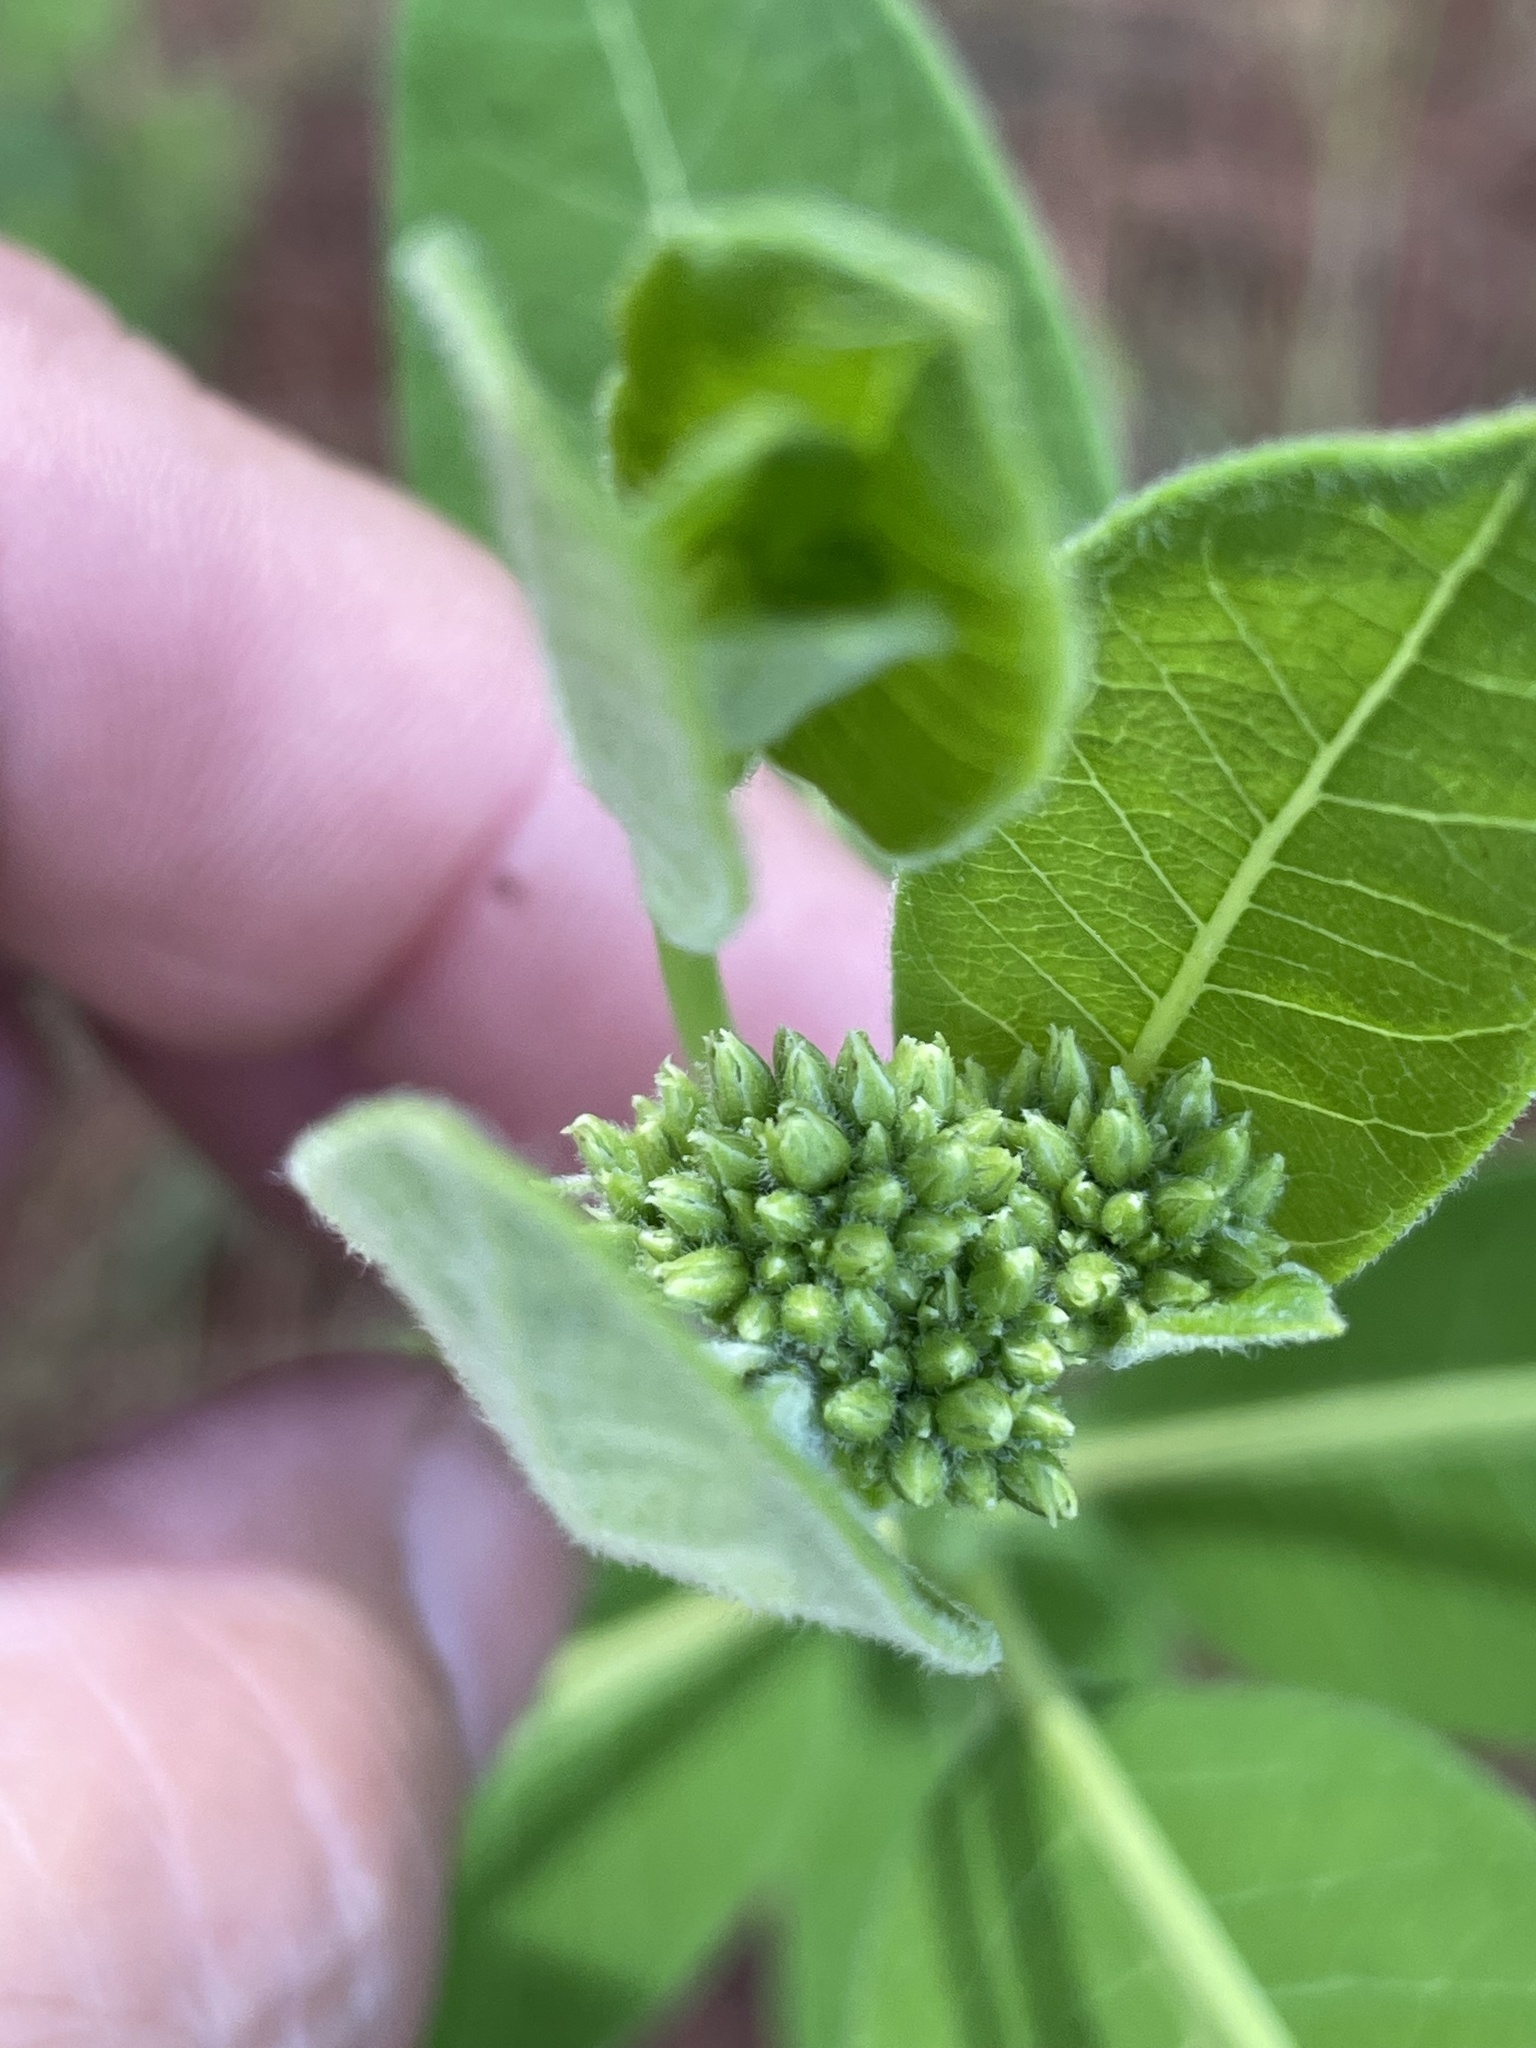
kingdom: Plantae
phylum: Tracheophyta
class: Magnoliopsida
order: Gentianales
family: Apocynaceae
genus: Apocynum
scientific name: Apocynum cannabinum
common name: Hemp dogbane
